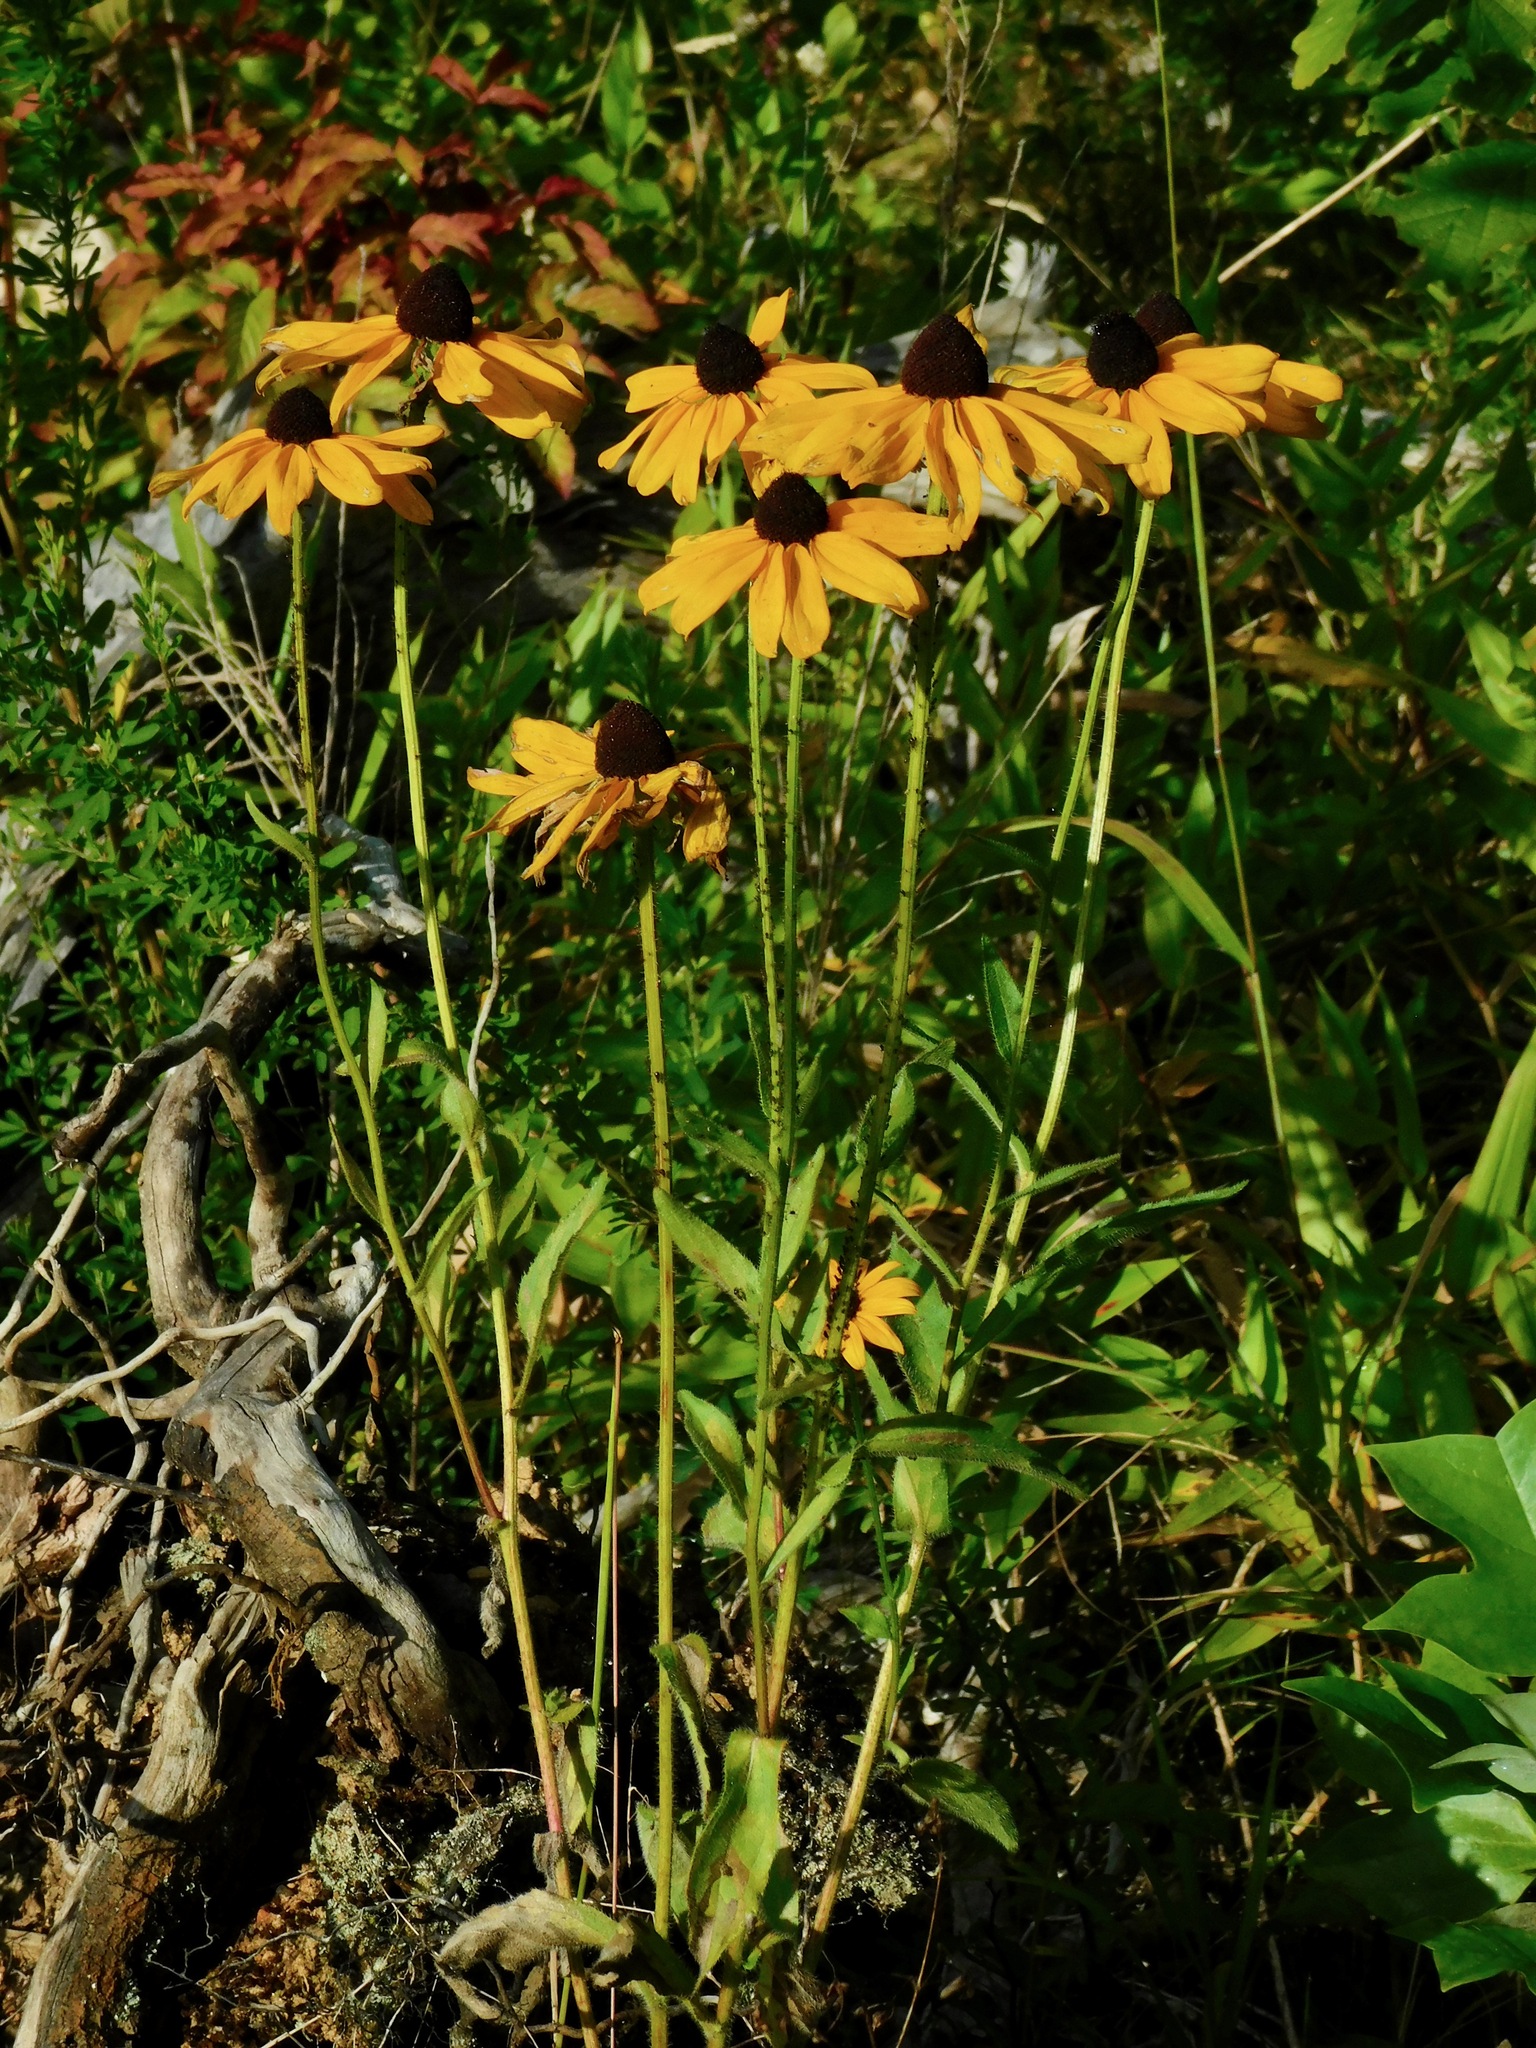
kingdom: Plantae
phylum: Tracheophyta
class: Magnoliopsida
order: Asterales
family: Asteraceae
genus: Rudbeckia
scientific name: Rudbeckia hirta
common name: Black-eyed-susan
